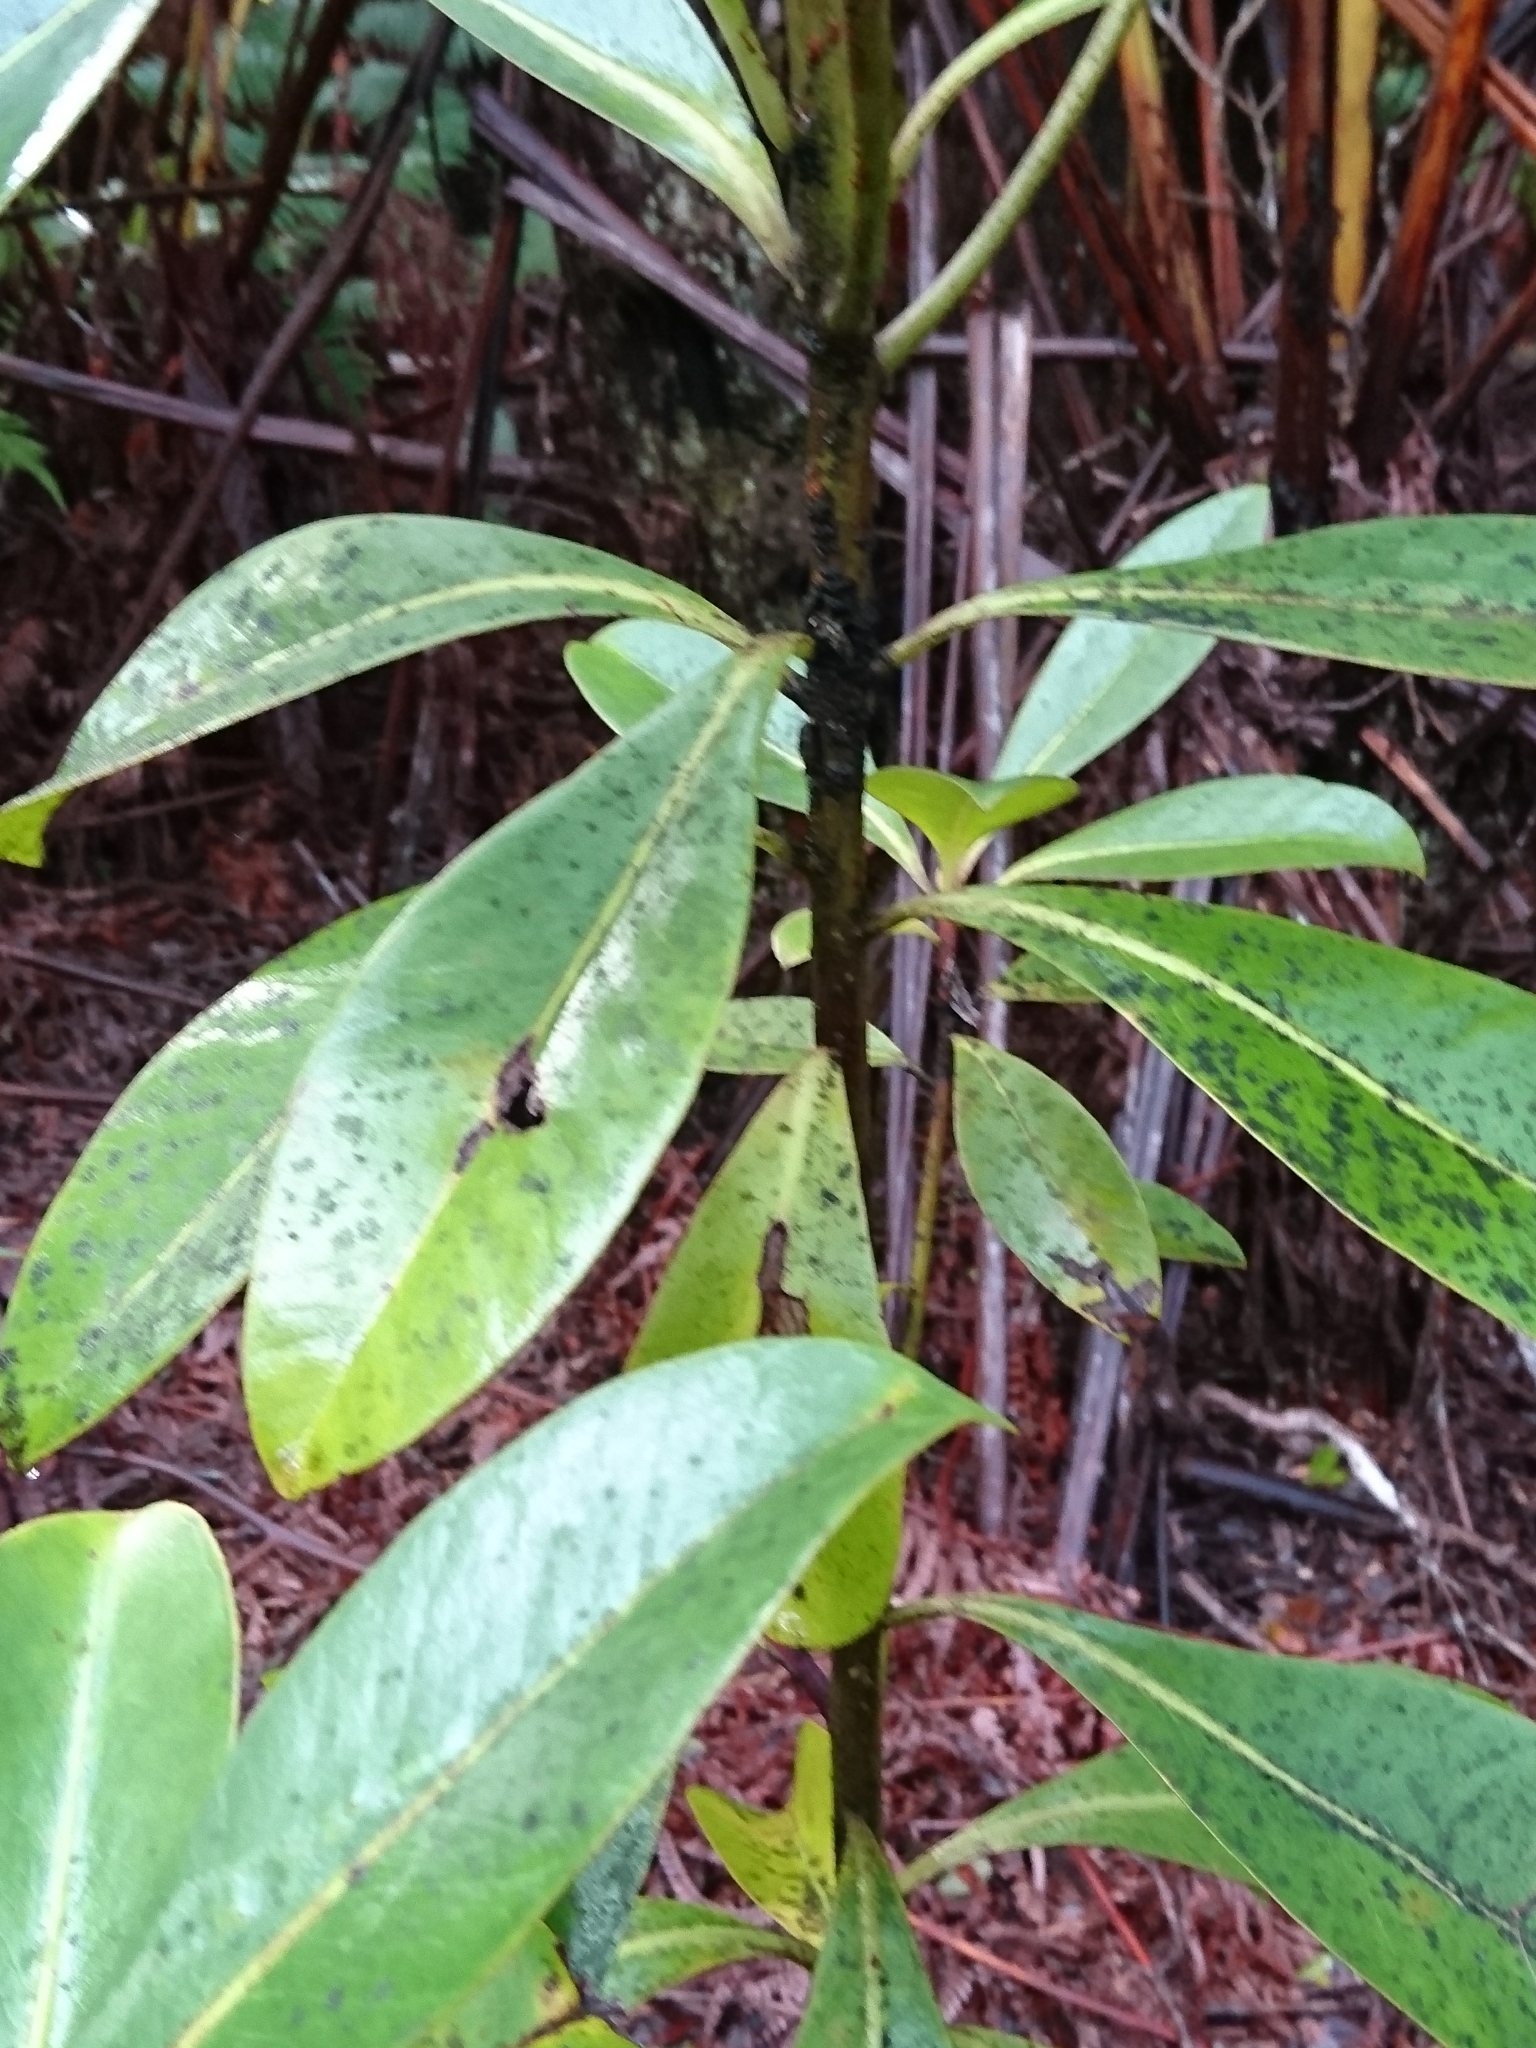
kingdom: Plantae
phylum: Tracheophyta
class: Magnoliopsida
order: Ericales
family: Primulaceae
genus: Myrsine
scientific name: Myrsine lessertiana
